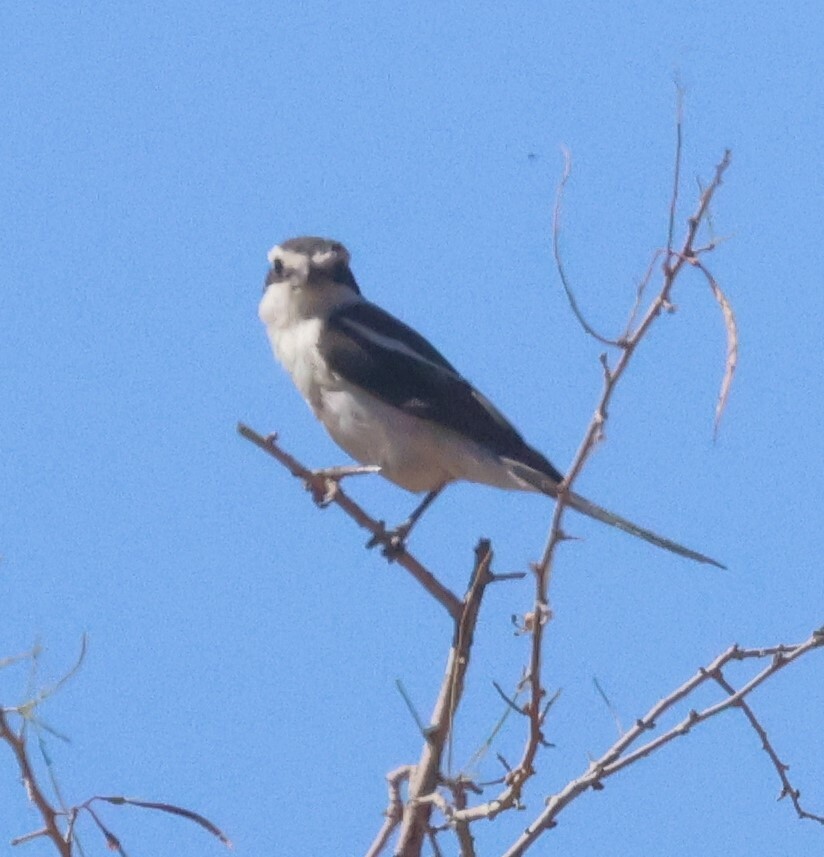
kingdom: Animalia
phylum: Chordata
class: Aves
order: Passeriformes
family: Laniidae
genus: Lanius
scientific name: Lanius collaris
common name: Southern fiscal
